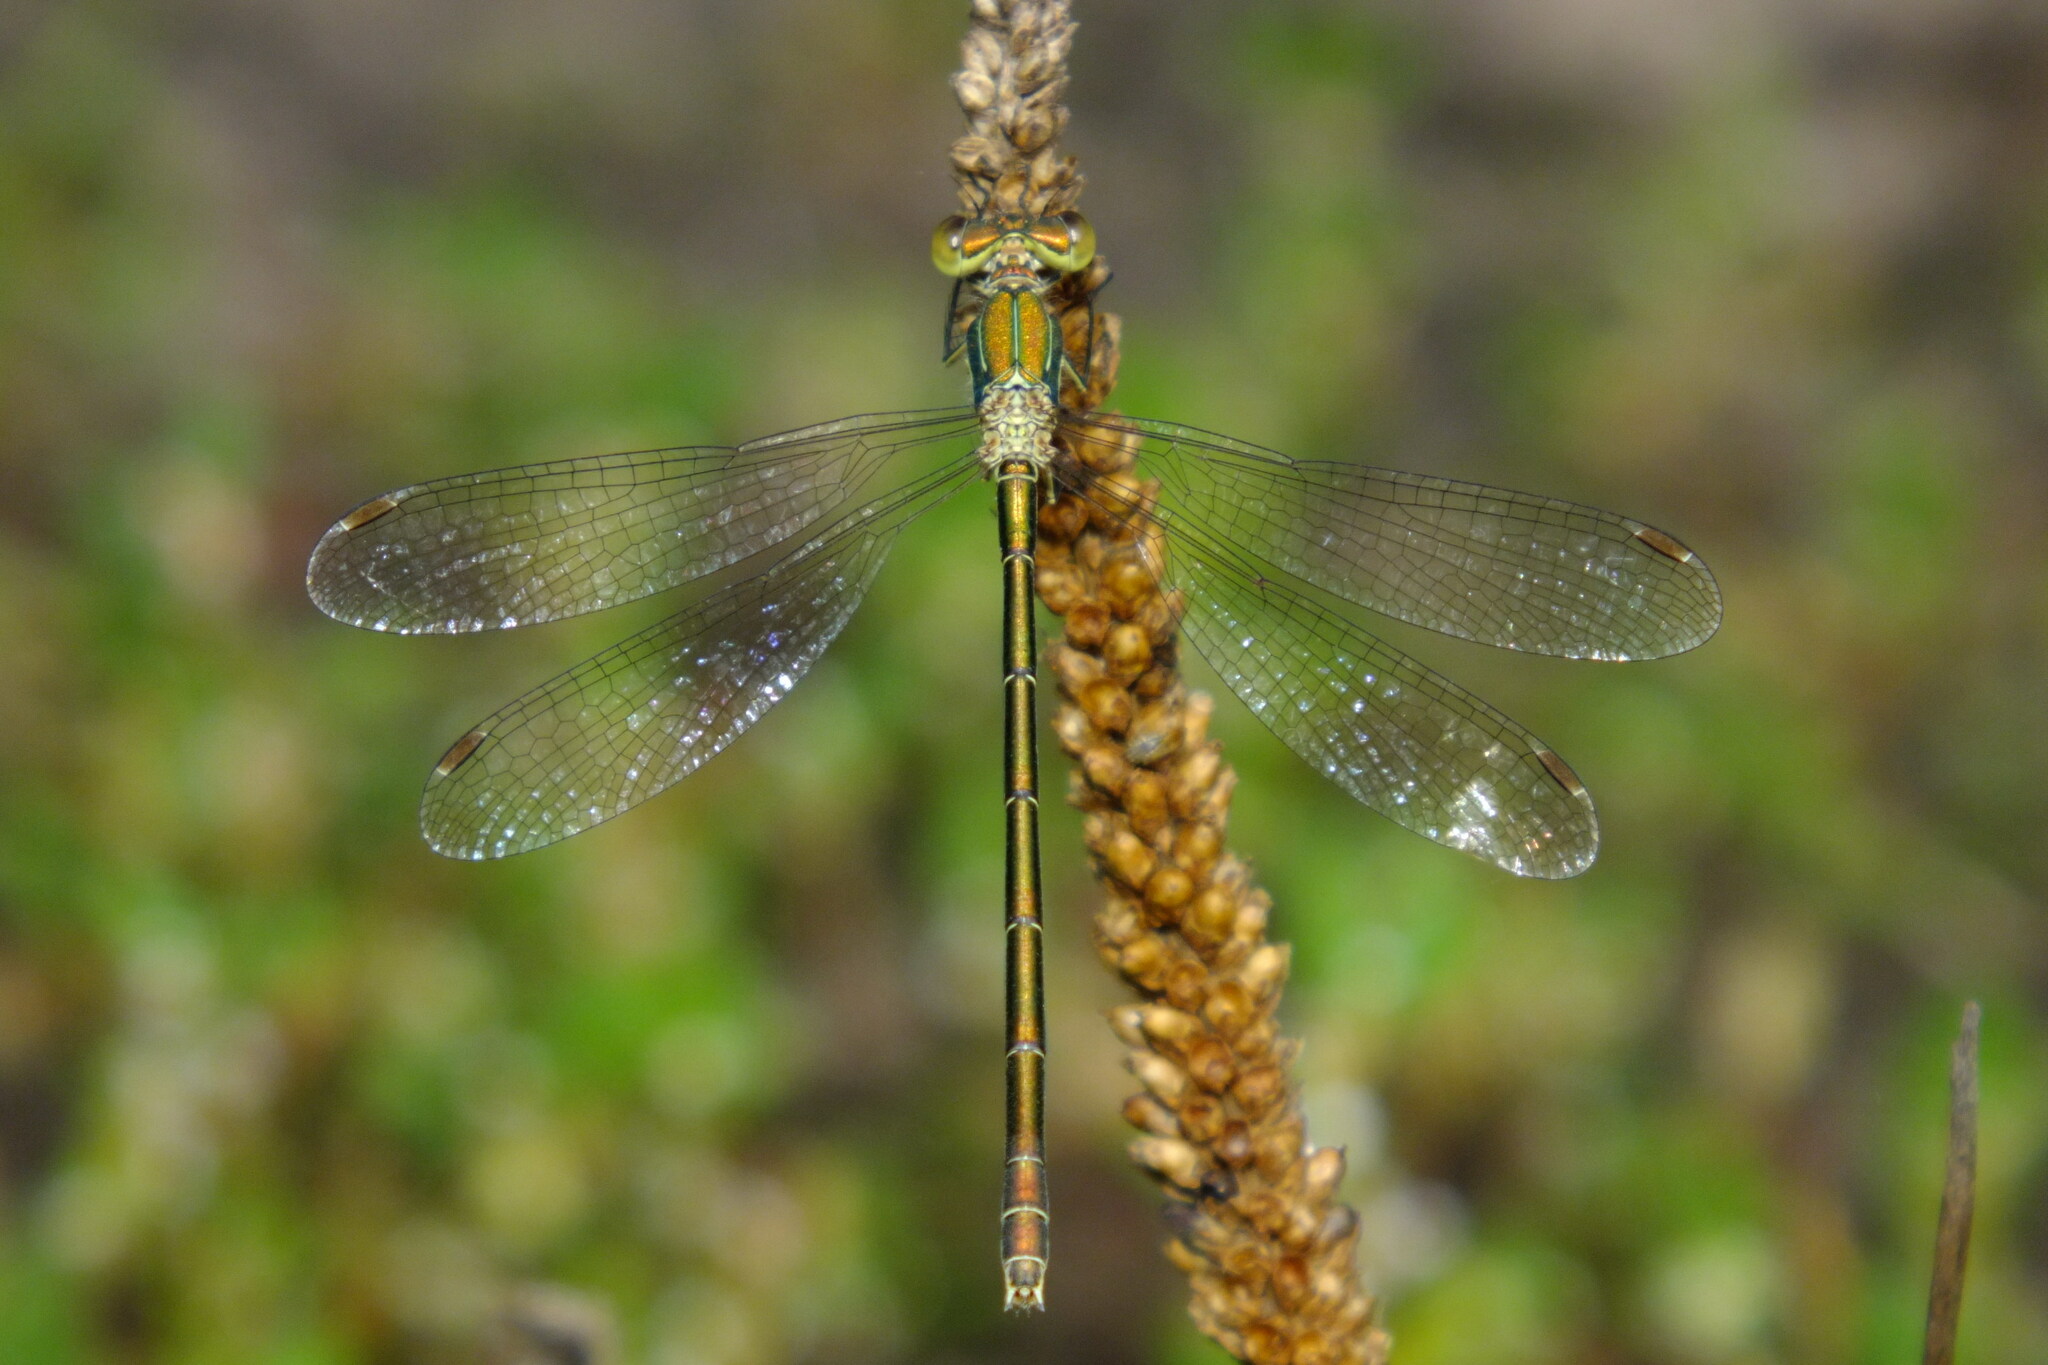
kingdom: Animalia
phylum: Arthropoda
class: Insecta
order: Odonata
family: Lestidae
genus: Lestes
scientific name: Lestes virens
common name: Small emerald spreadwing
